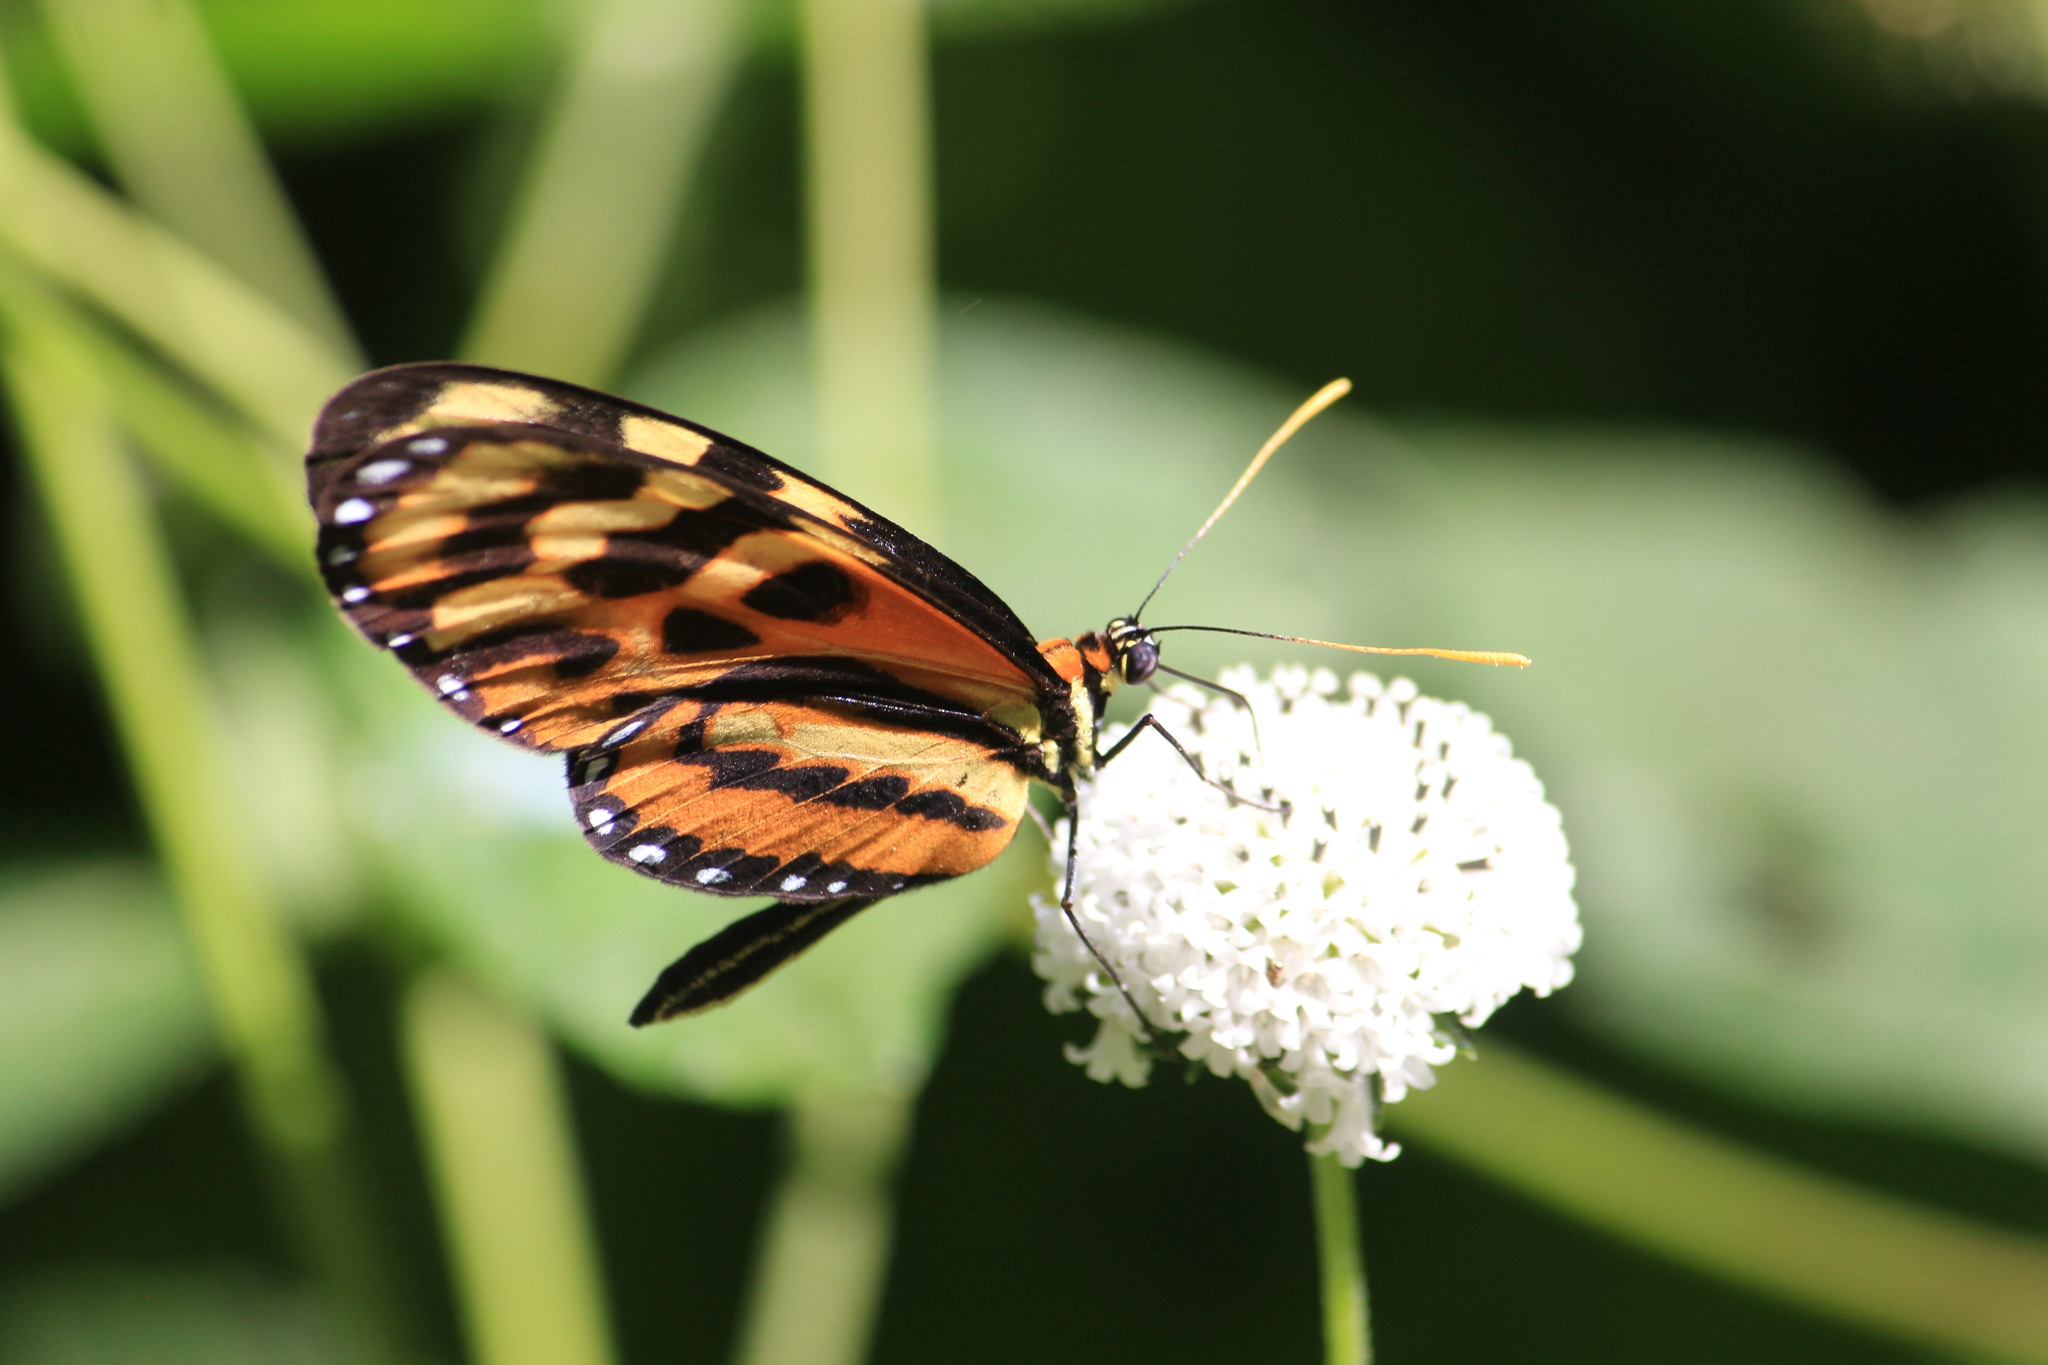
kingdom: Animalia
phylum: Arthropoda
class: Insecta
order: Lepidoptera
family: Nymphalidae
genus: Mechanitis
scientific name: Mechanitis lysimnia
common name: Lysimnia tigerwing
